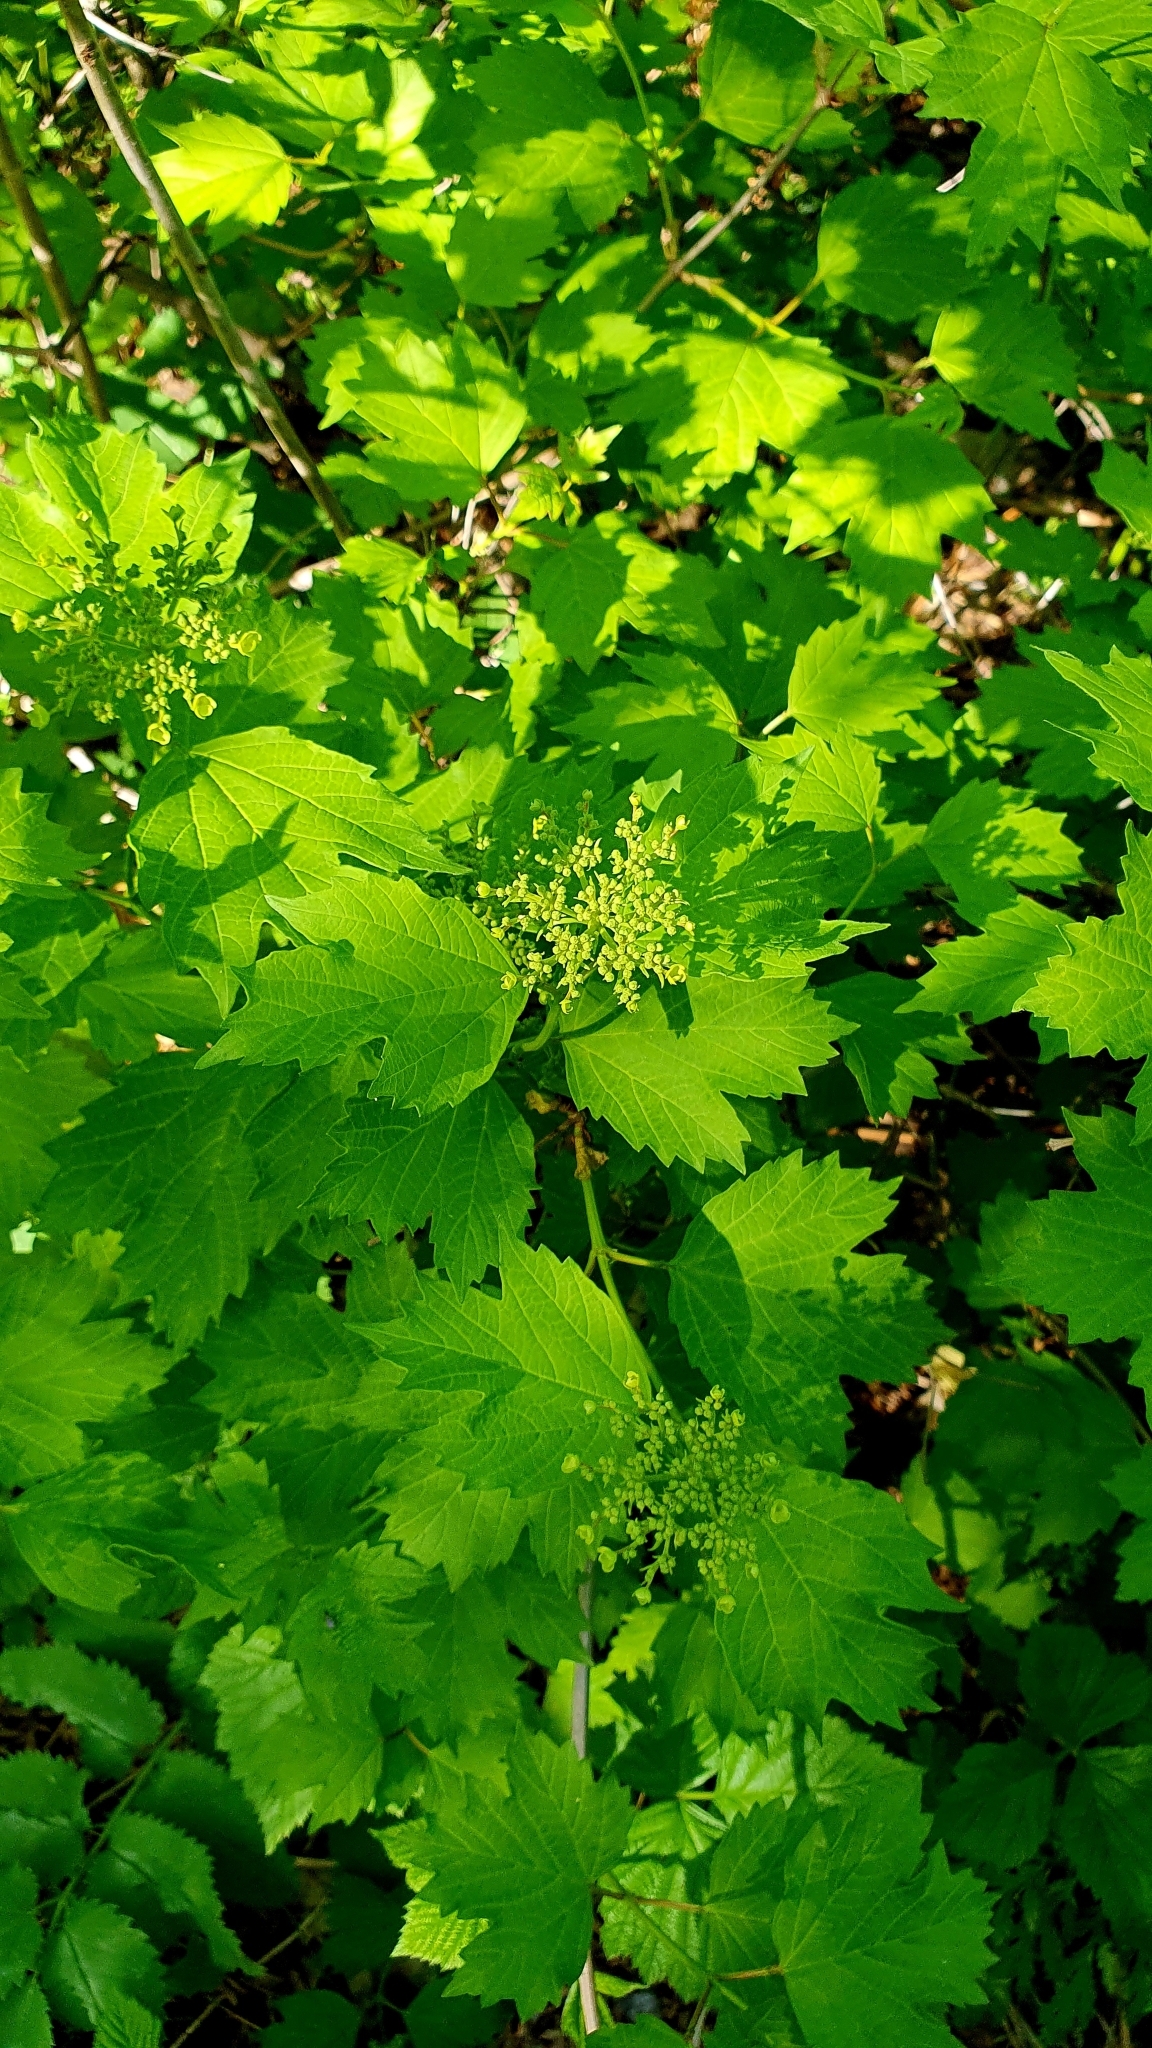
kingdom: Plantae
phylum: Tracheophyta
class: Magnoliopsida
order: Dipsacales
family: Viburnaceae
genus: Viburnum
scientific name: Viburnum opulus
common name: Guelder-rose
